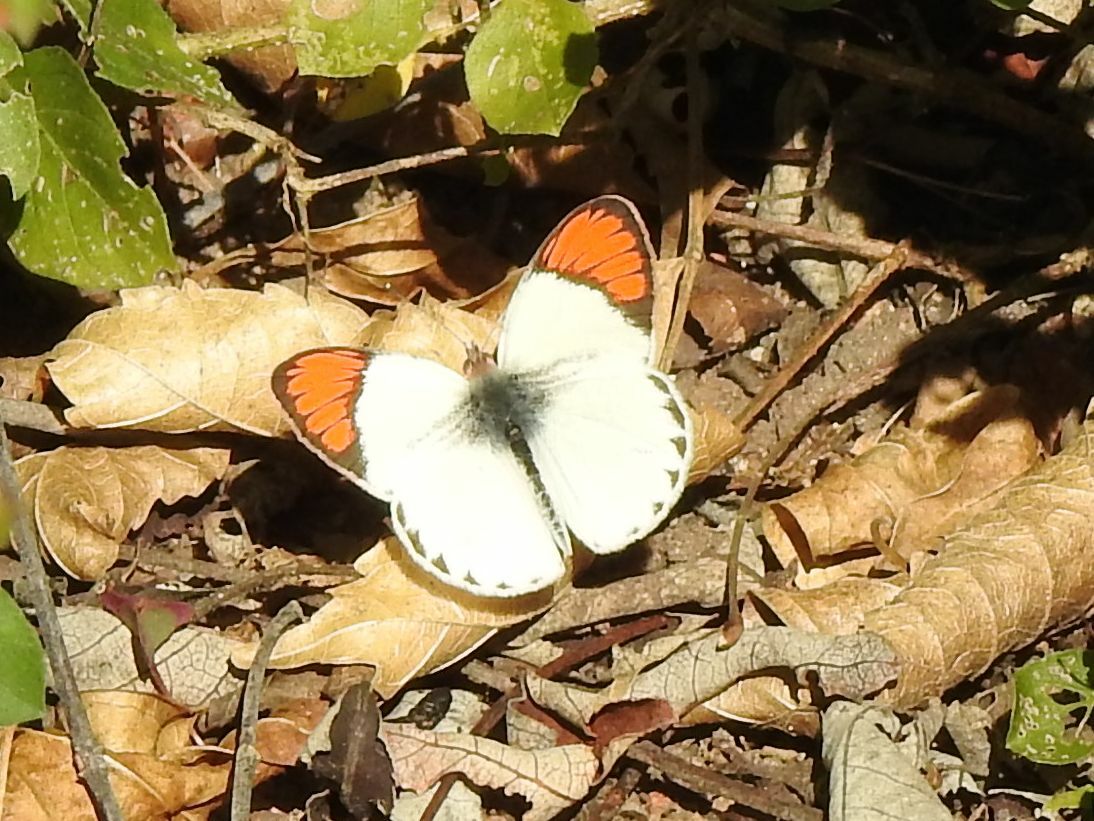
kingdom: Animalia
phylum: Arthropoda
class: Insecta
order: Lepidoptera
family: Pieridae
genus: Colotis
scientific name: Colotis euippe
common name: Round-winged orange tip
